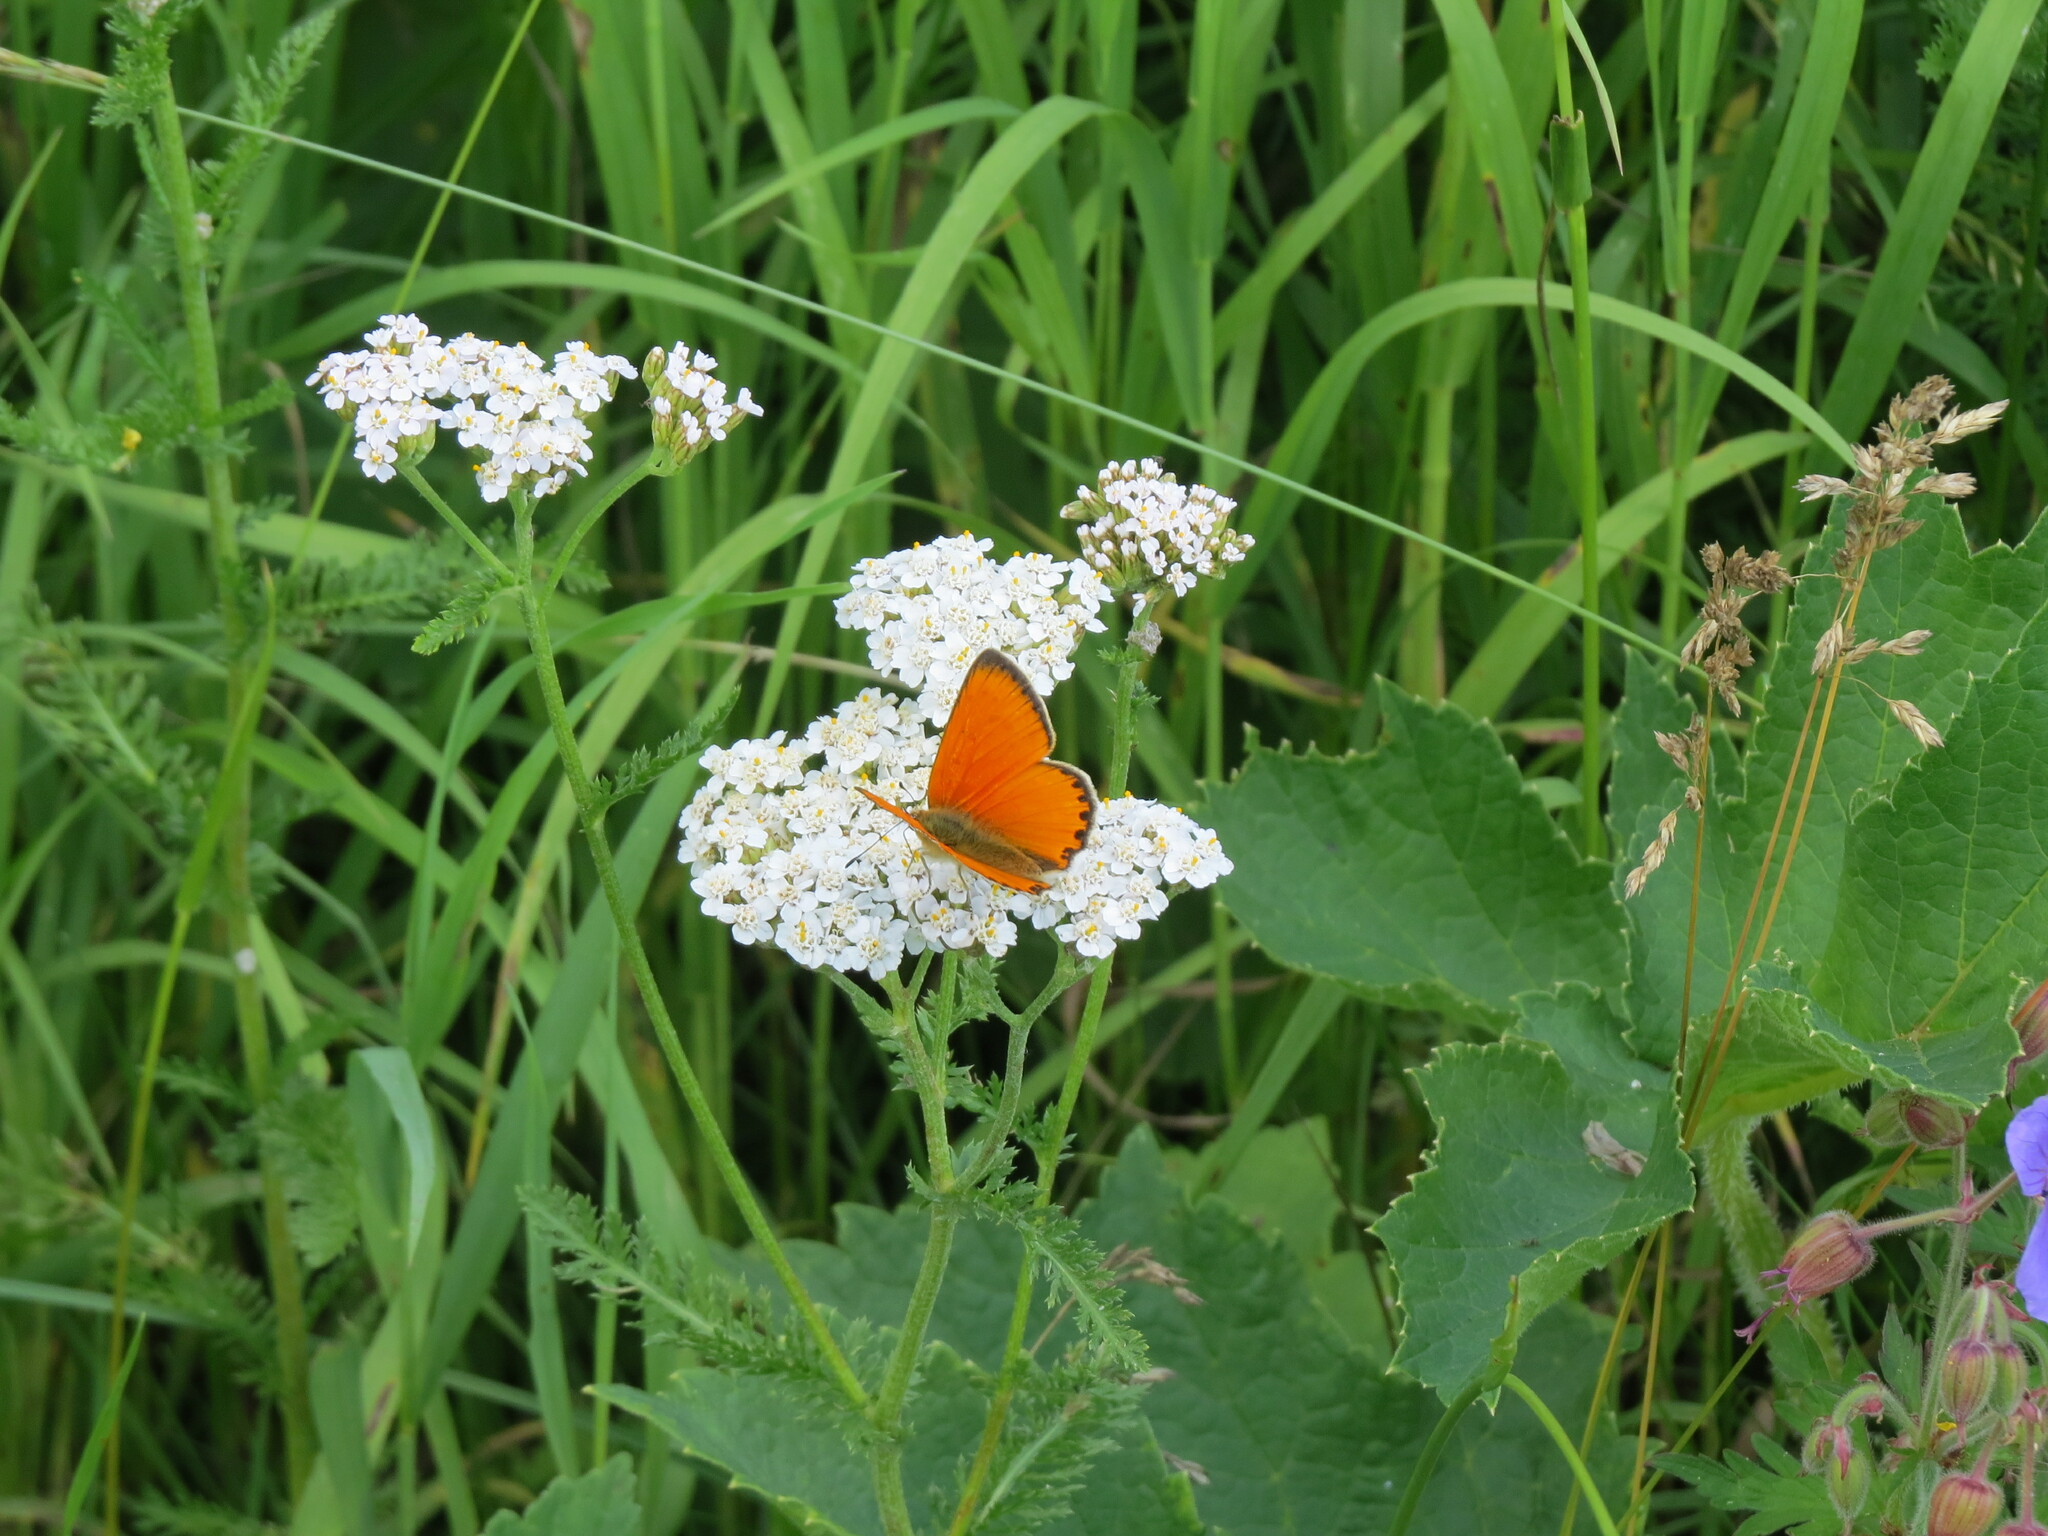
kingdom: Animalia
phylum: Arthropoda
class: Insecta
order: Lepidoptera
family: Lycaenidae
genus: Lycaena
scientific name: Lycaena virgaureae
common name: Scarce copper
